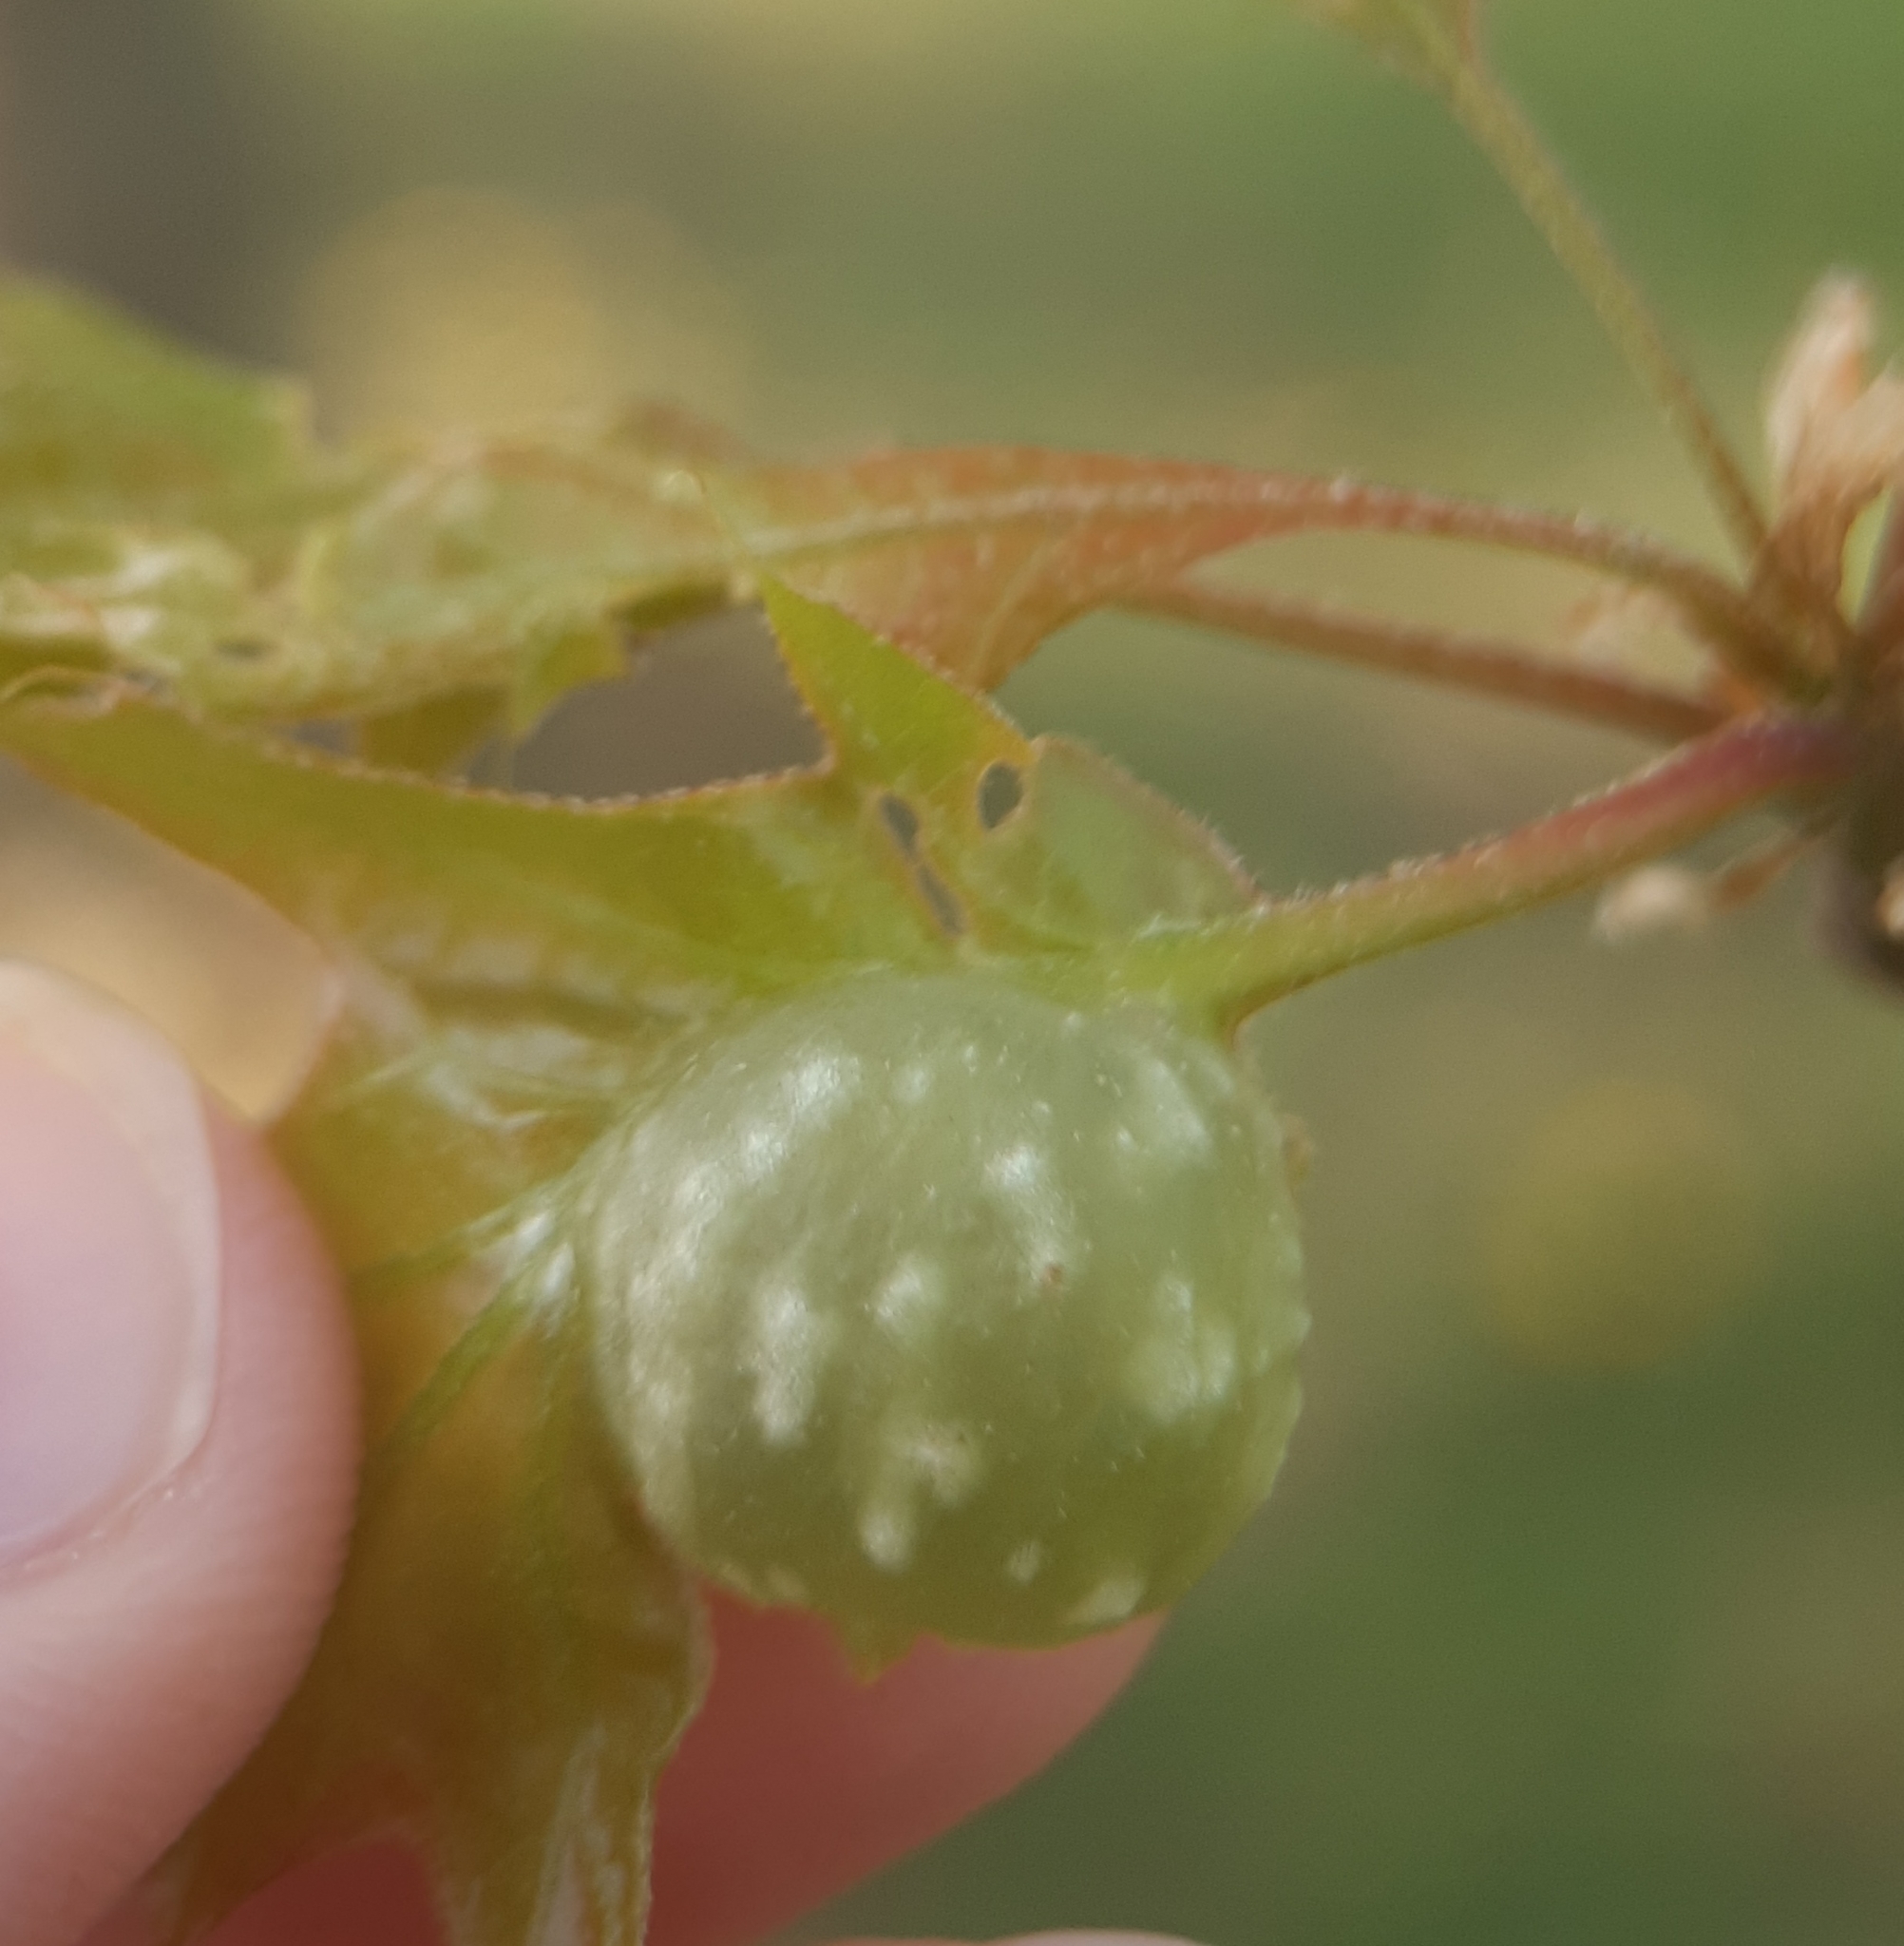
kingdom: Animalia
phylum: Arthropoda
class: Insecta
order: Hymenoptera
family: Cynipidae
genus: Dryocosmus
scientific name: Dryocosmus quercuspalustris
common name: Succulent oak gall wasp
